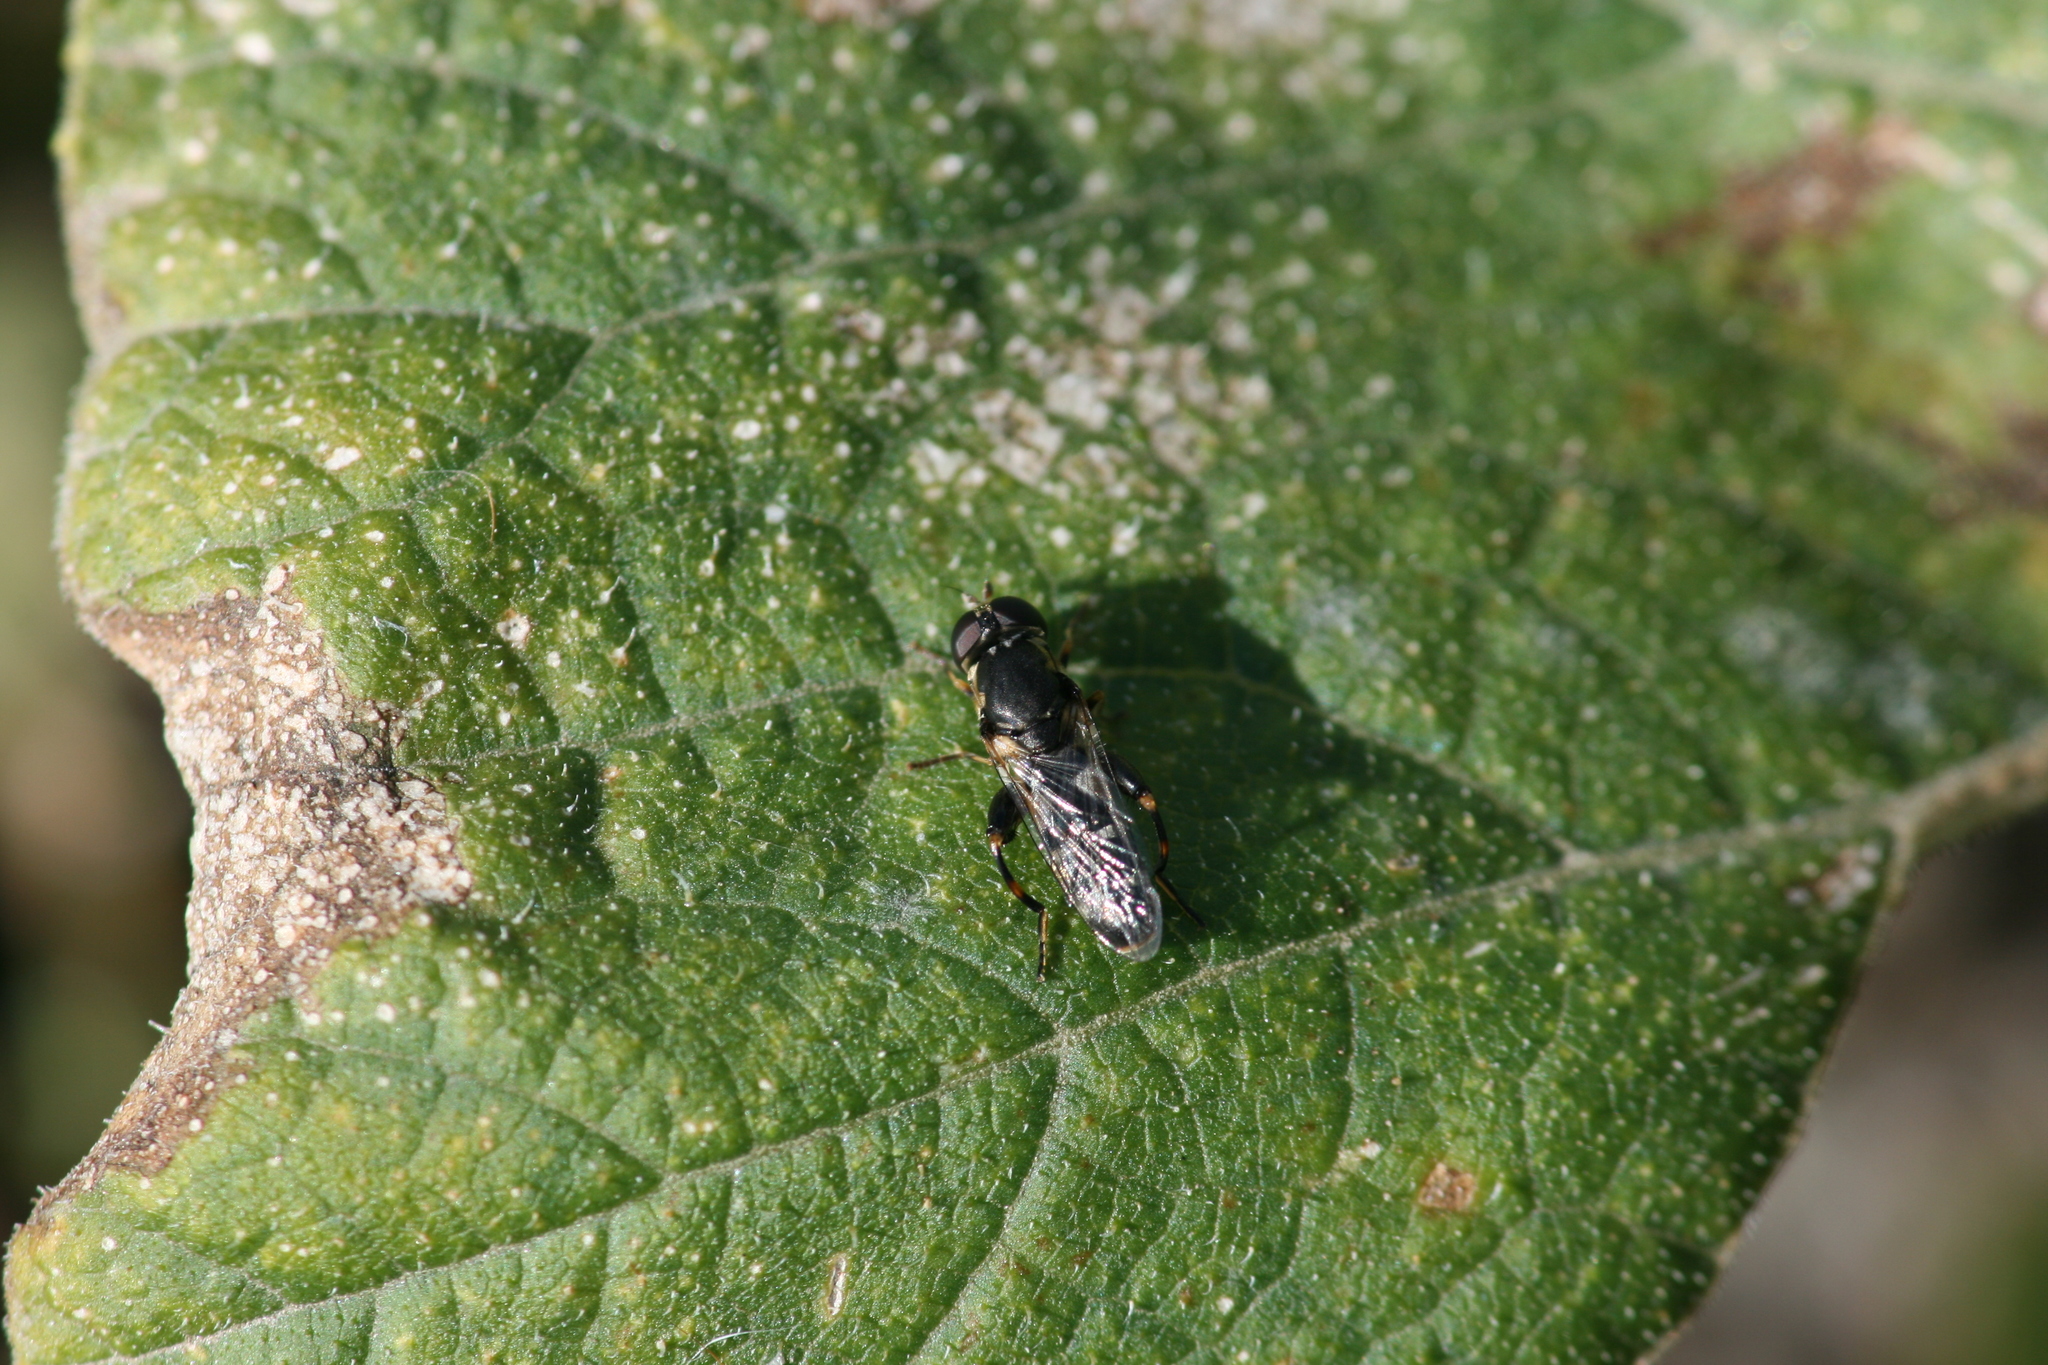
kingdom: Animalia
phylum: Arthropoda
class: Insecta
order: Diptera
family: Syrphidae
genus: Syritta
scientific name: Syritta pipiens
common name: Hover fly
